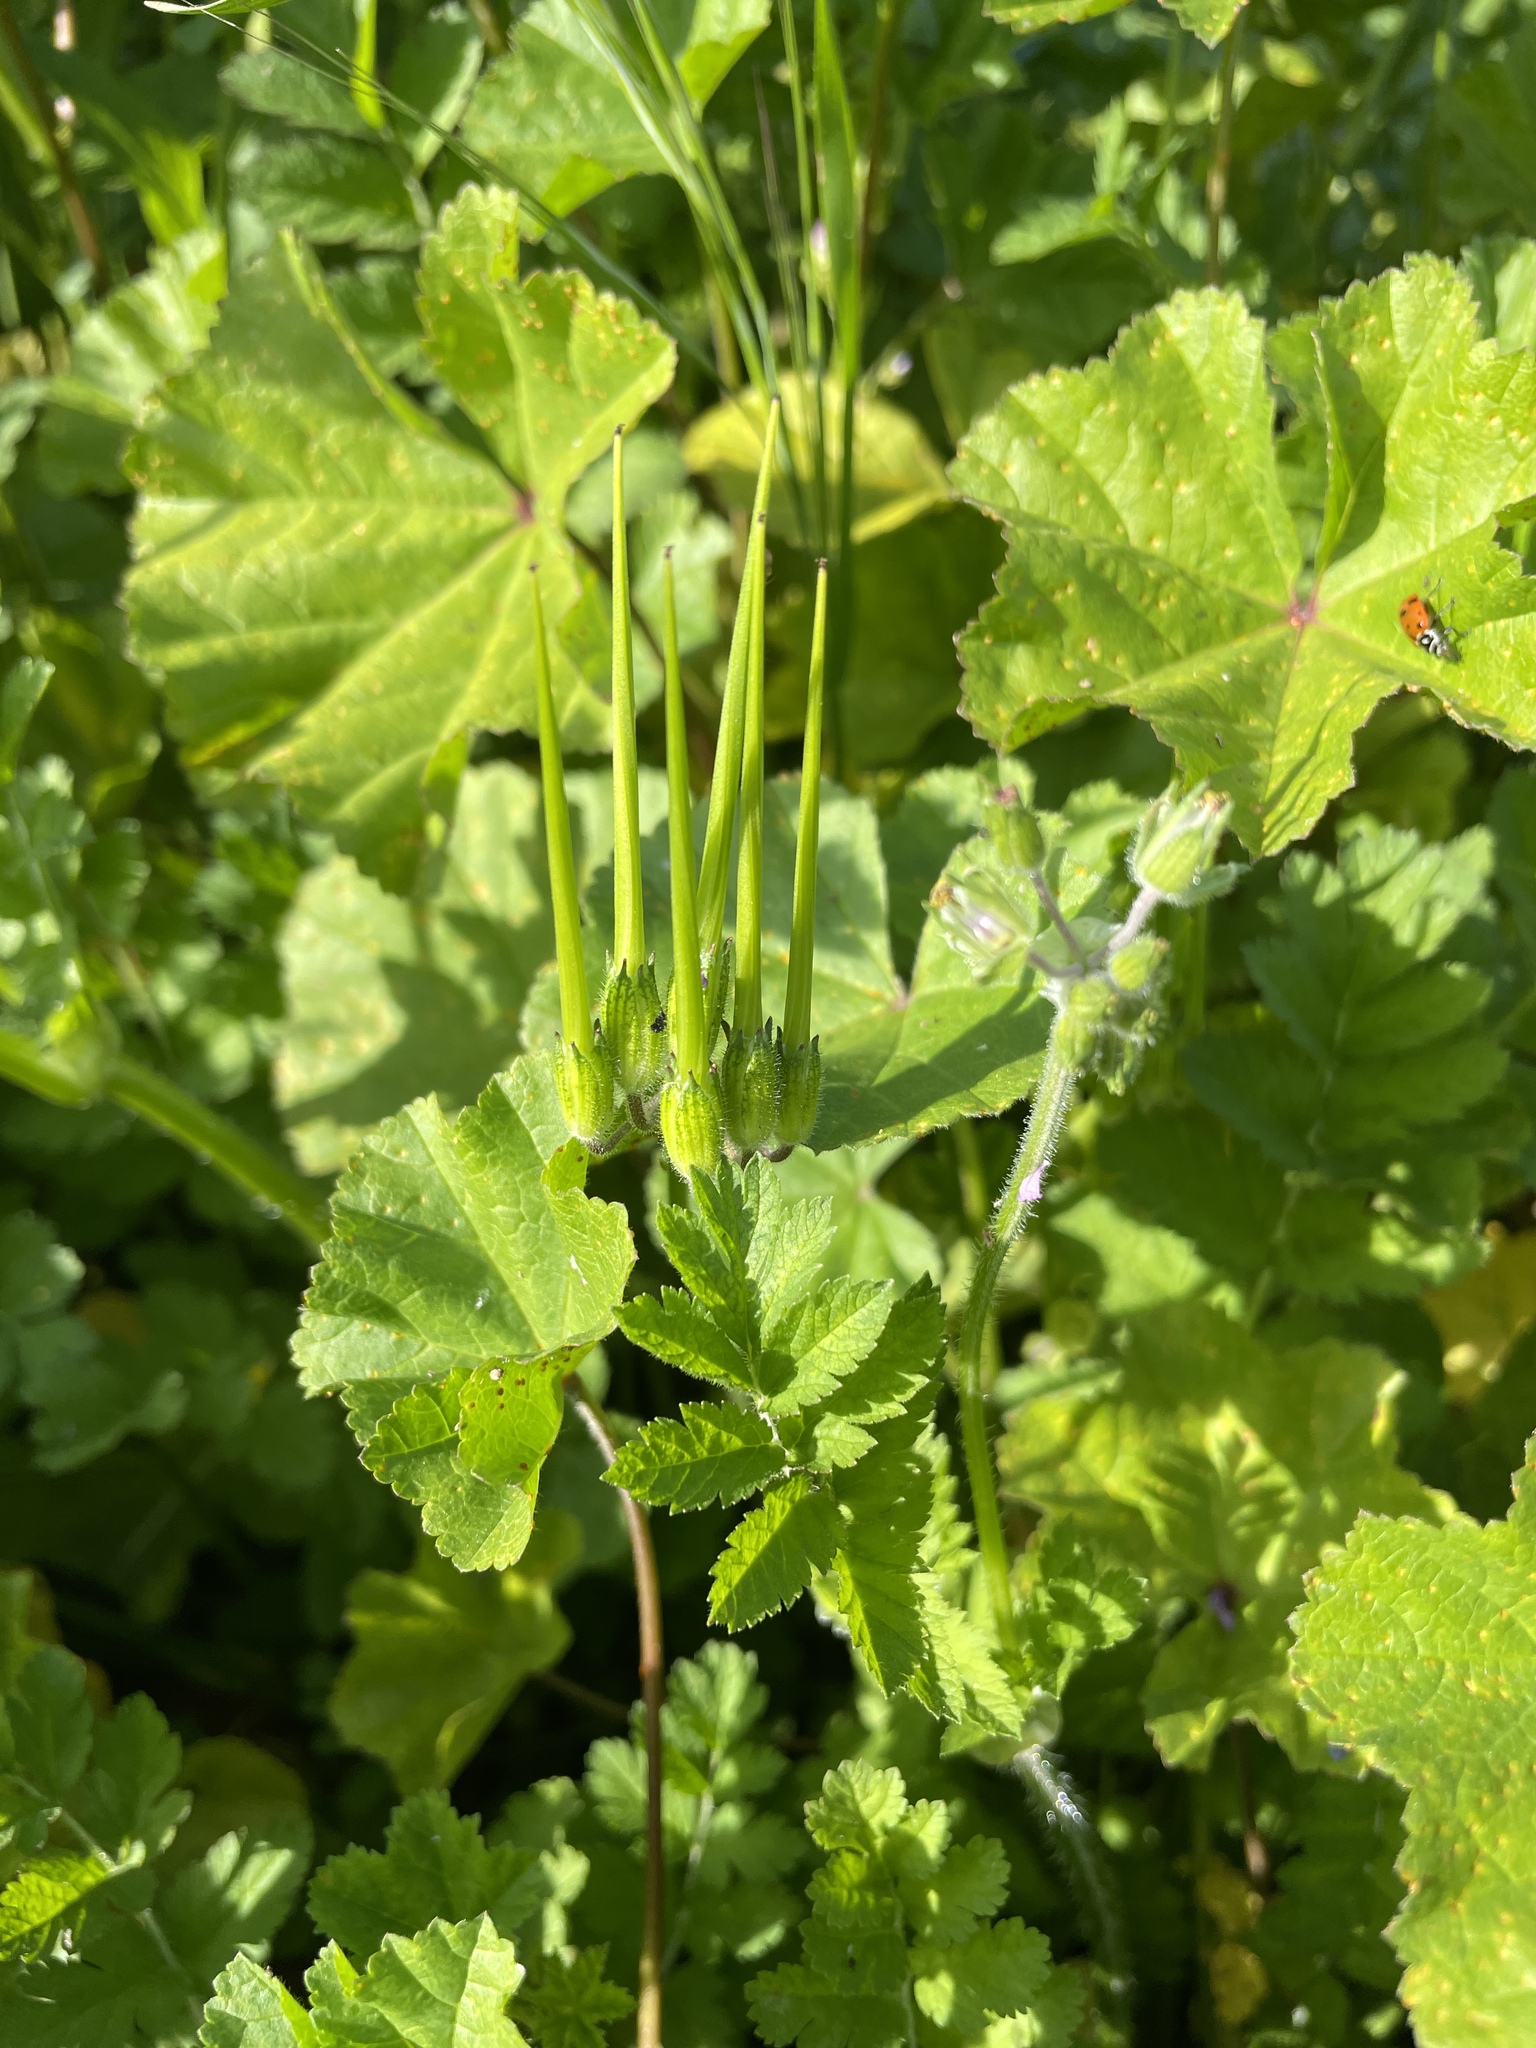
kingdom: Plantae
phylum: Tracheophyta
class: Magnoliopsida
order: Geraniales
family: Geraniaceae
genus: Erodium
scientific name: Erodium moschatum
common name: Musk stork's-bill
